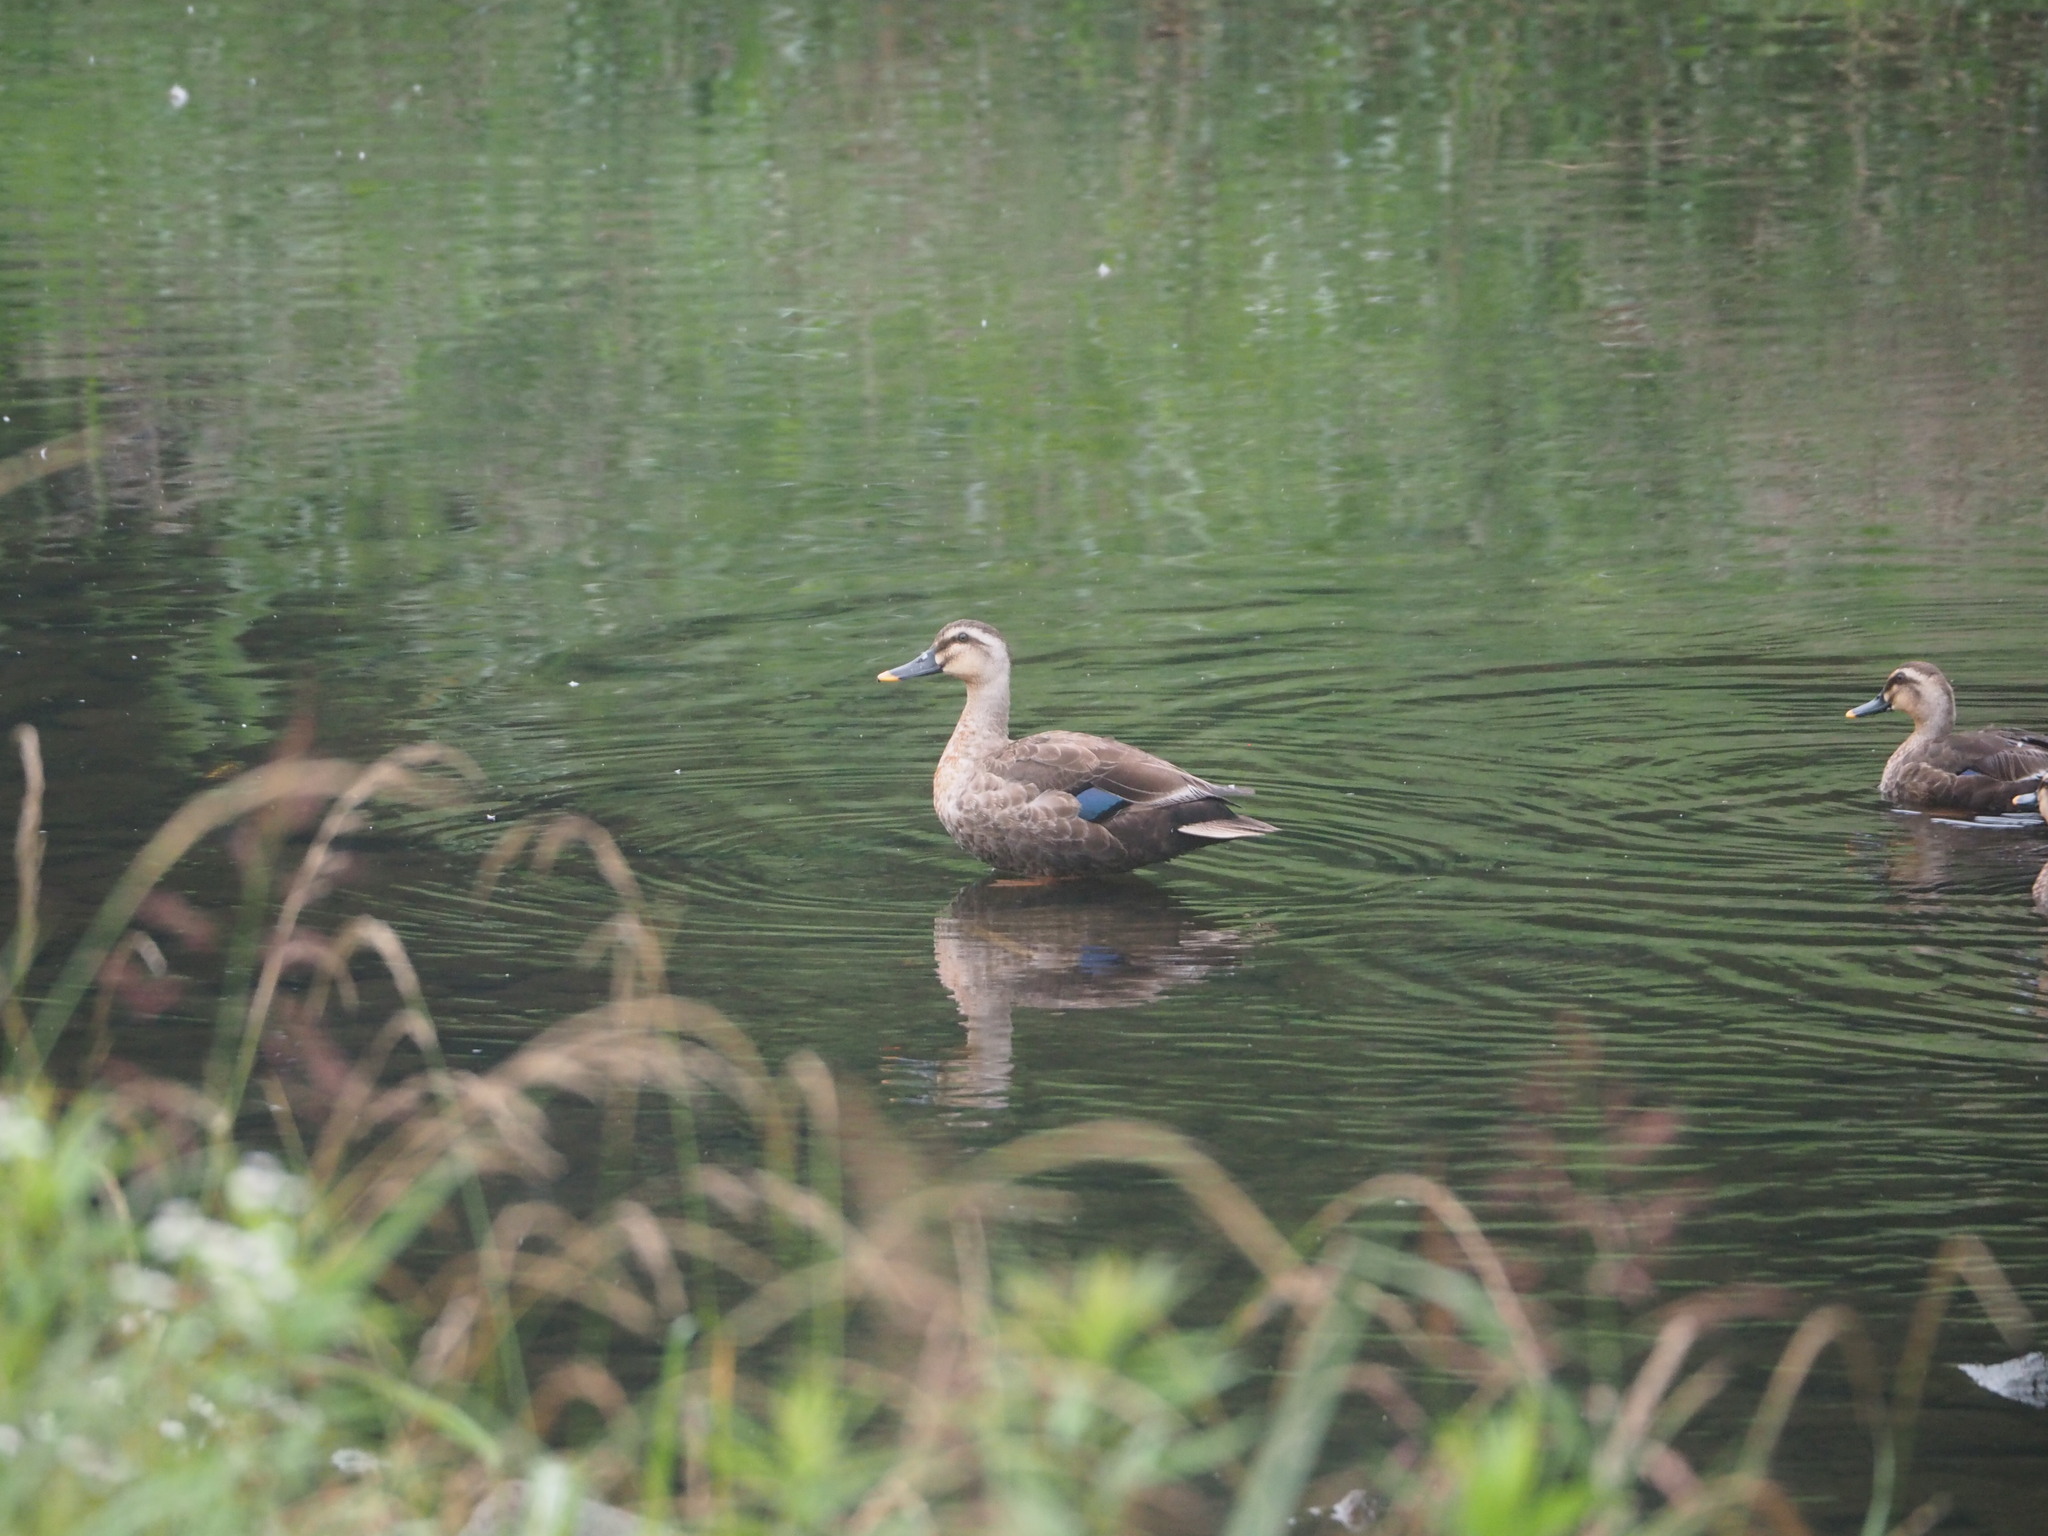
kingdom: Animalia
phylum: Chordata
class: Aves
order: Anseriformes
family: Anatidae
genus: Anas
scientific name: Anas zonorhyncha
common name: Eastern spot-billed duck
